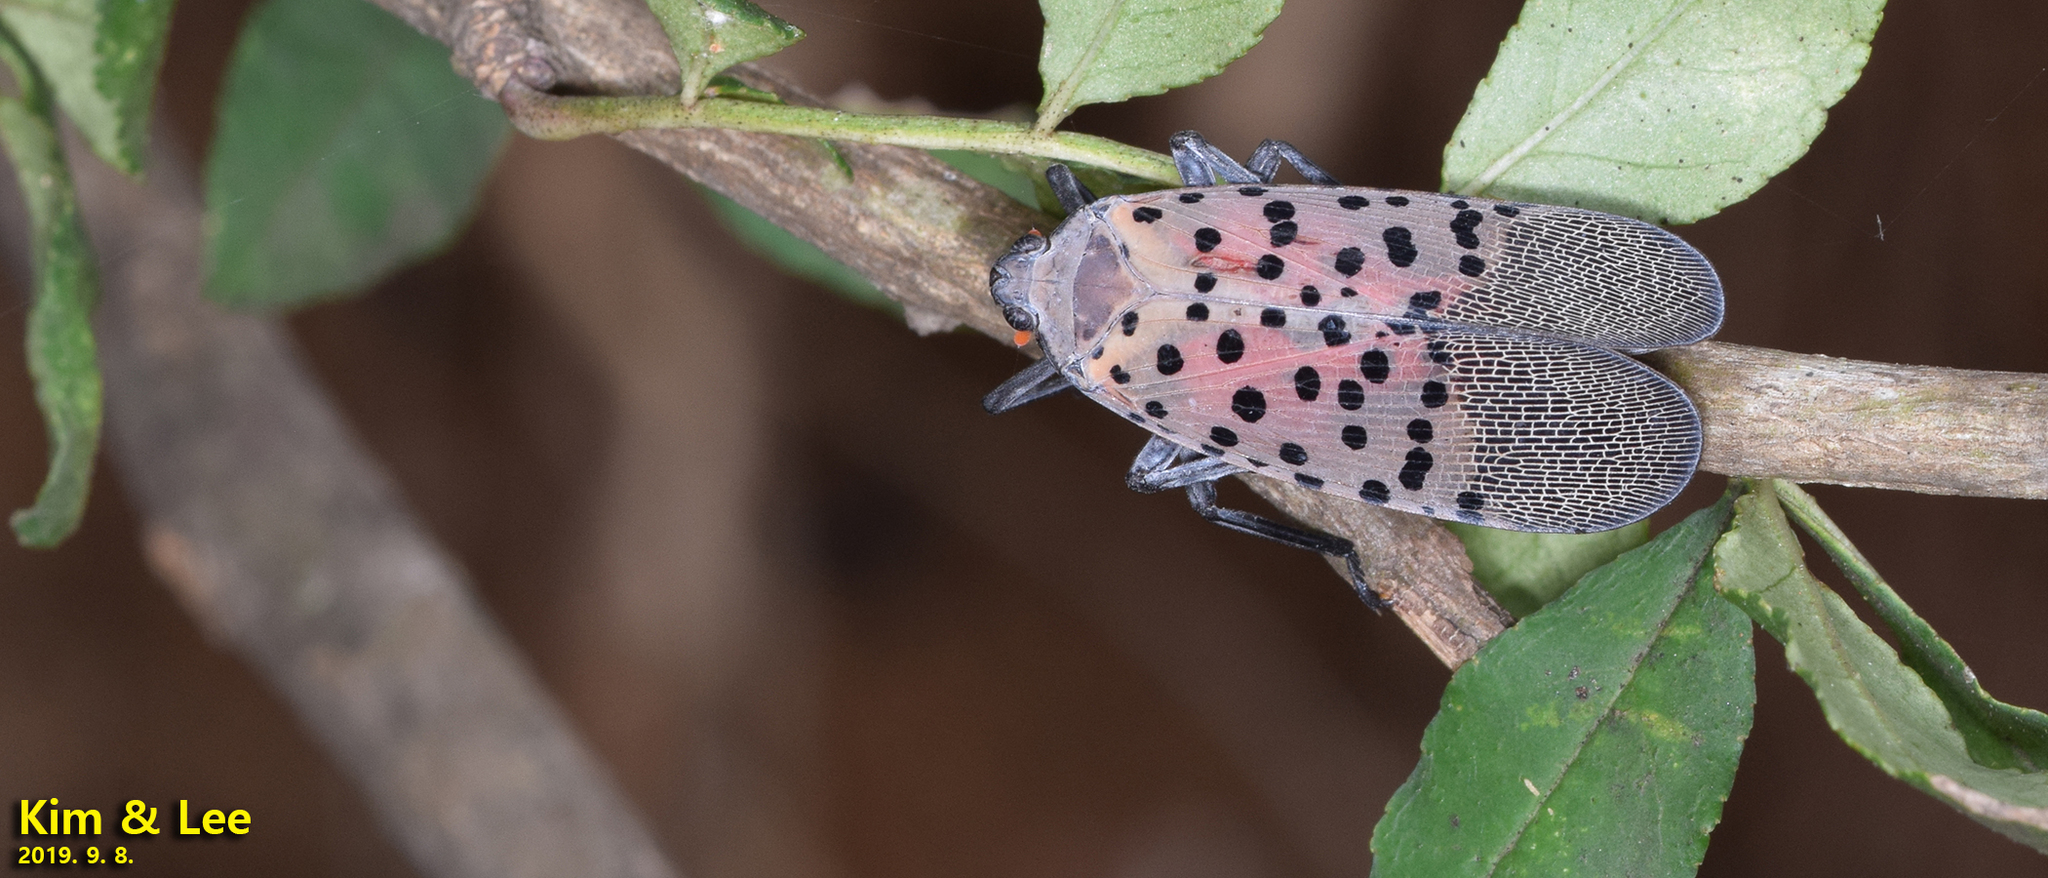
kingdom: Animalia
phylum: Arthropoda
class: Insecta
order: Hemiptera
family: Fulgoridae
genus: Lycorma
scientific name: Lycorma delicatula
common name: Spotted lanternfly
